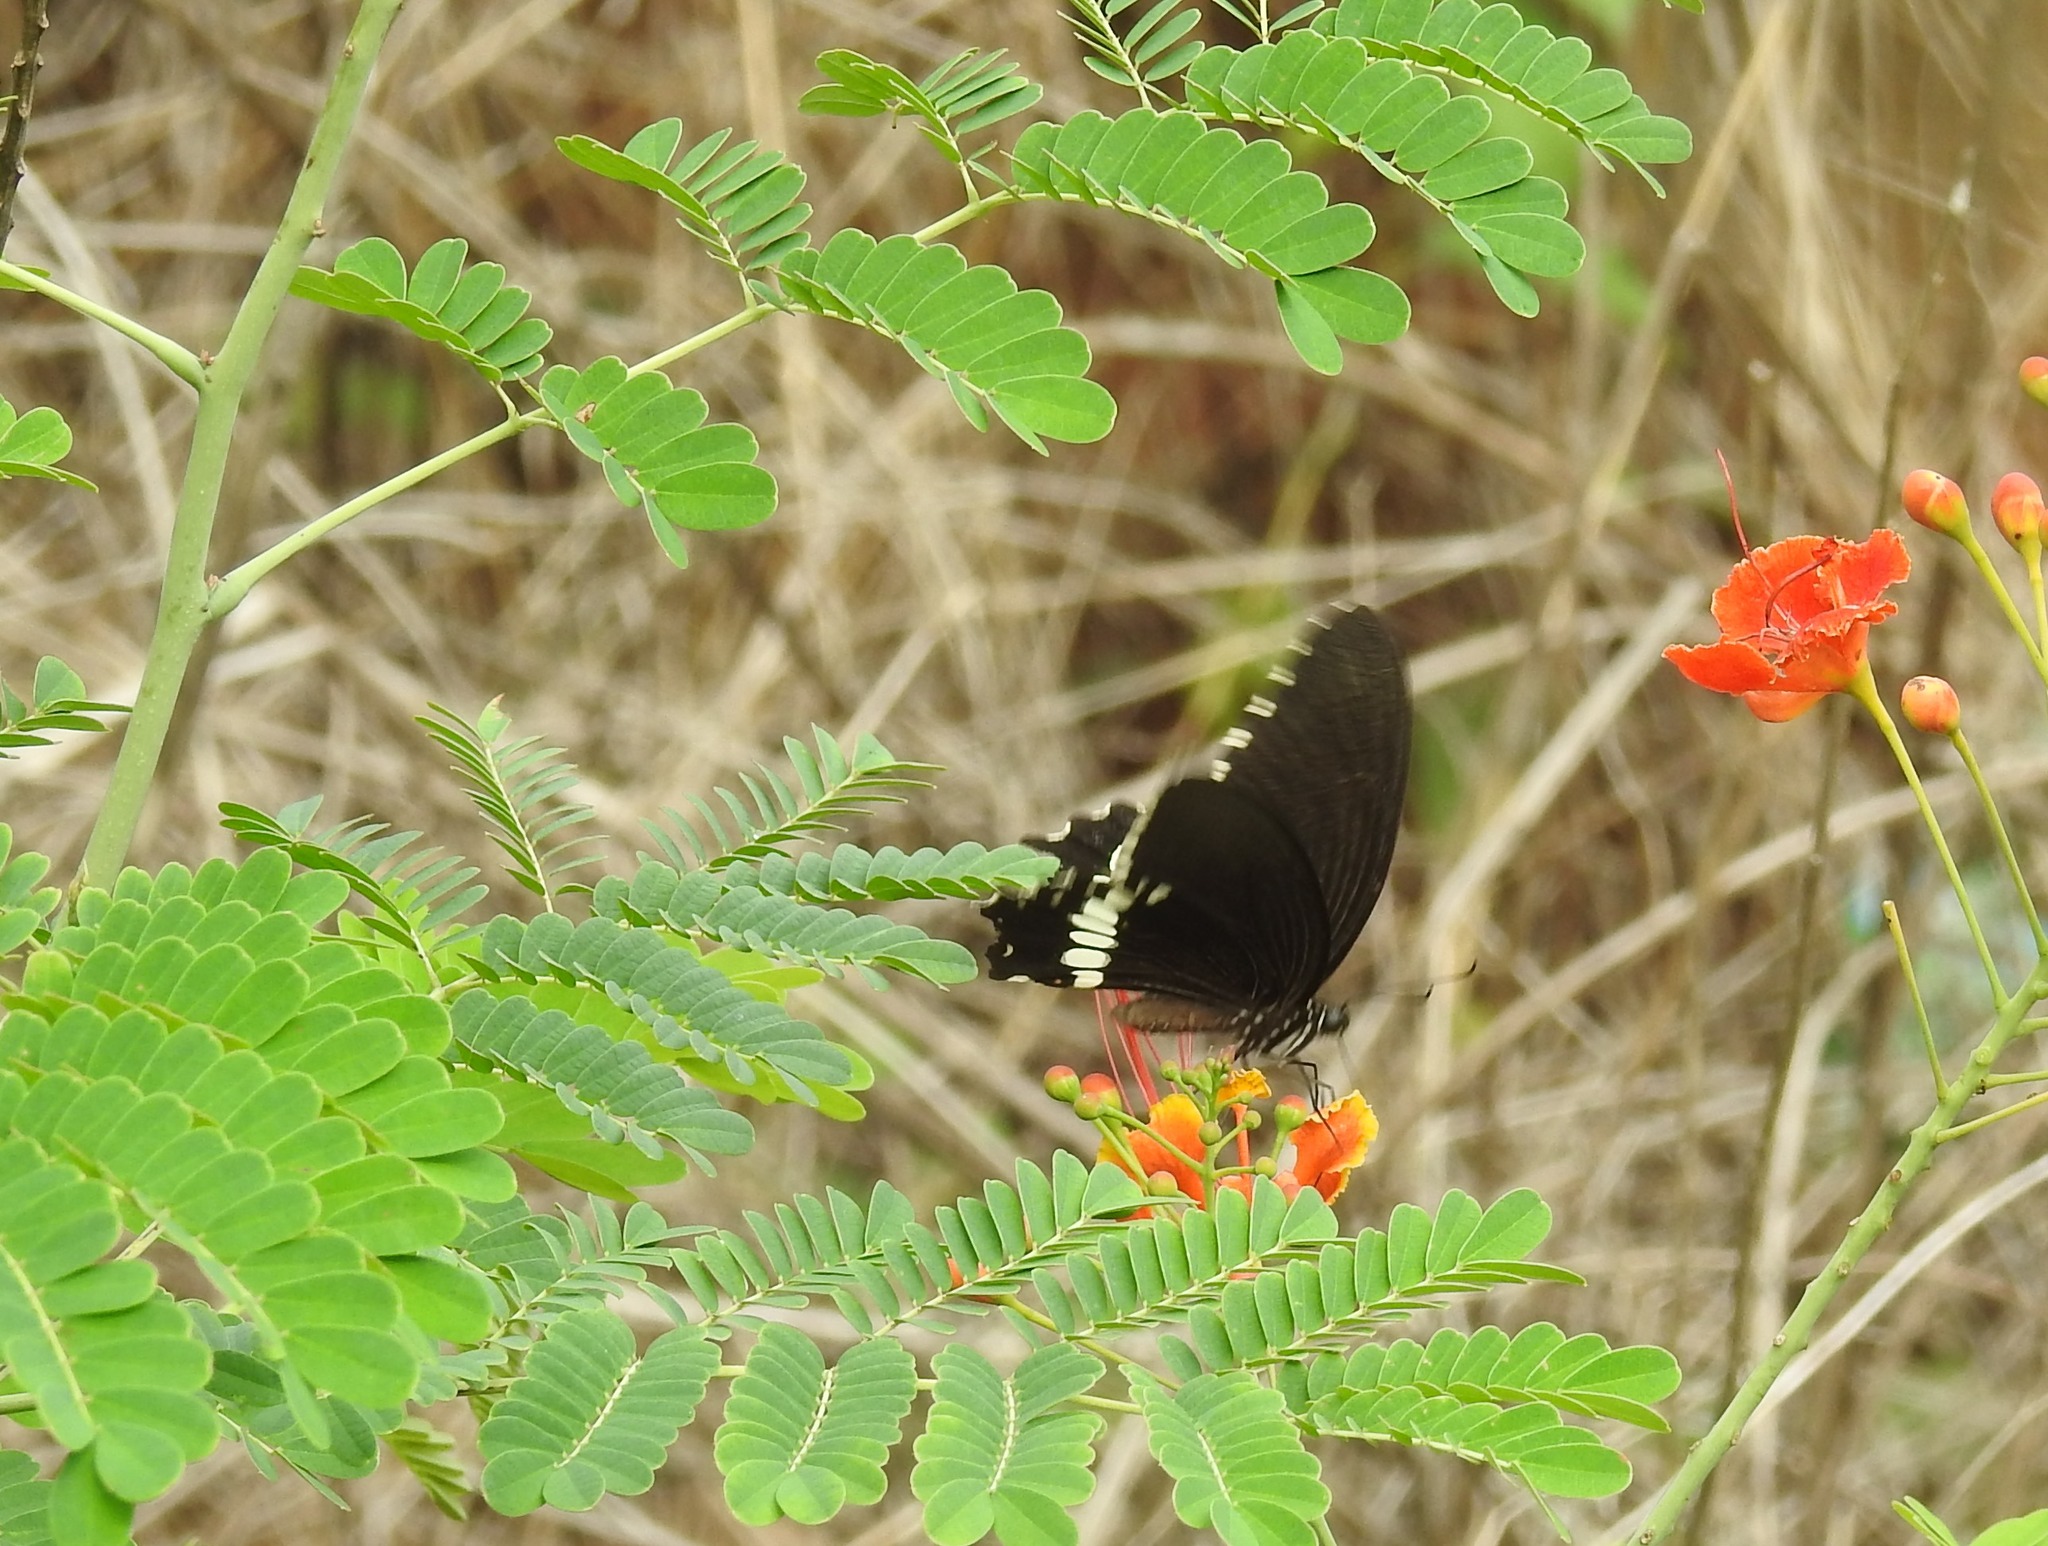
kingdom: Animalia
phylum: Arthropoda
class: Insecta
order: Lepidoptera
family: Papilionidae
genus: Papilio
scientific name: Papilio polytes
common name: Common mormon
